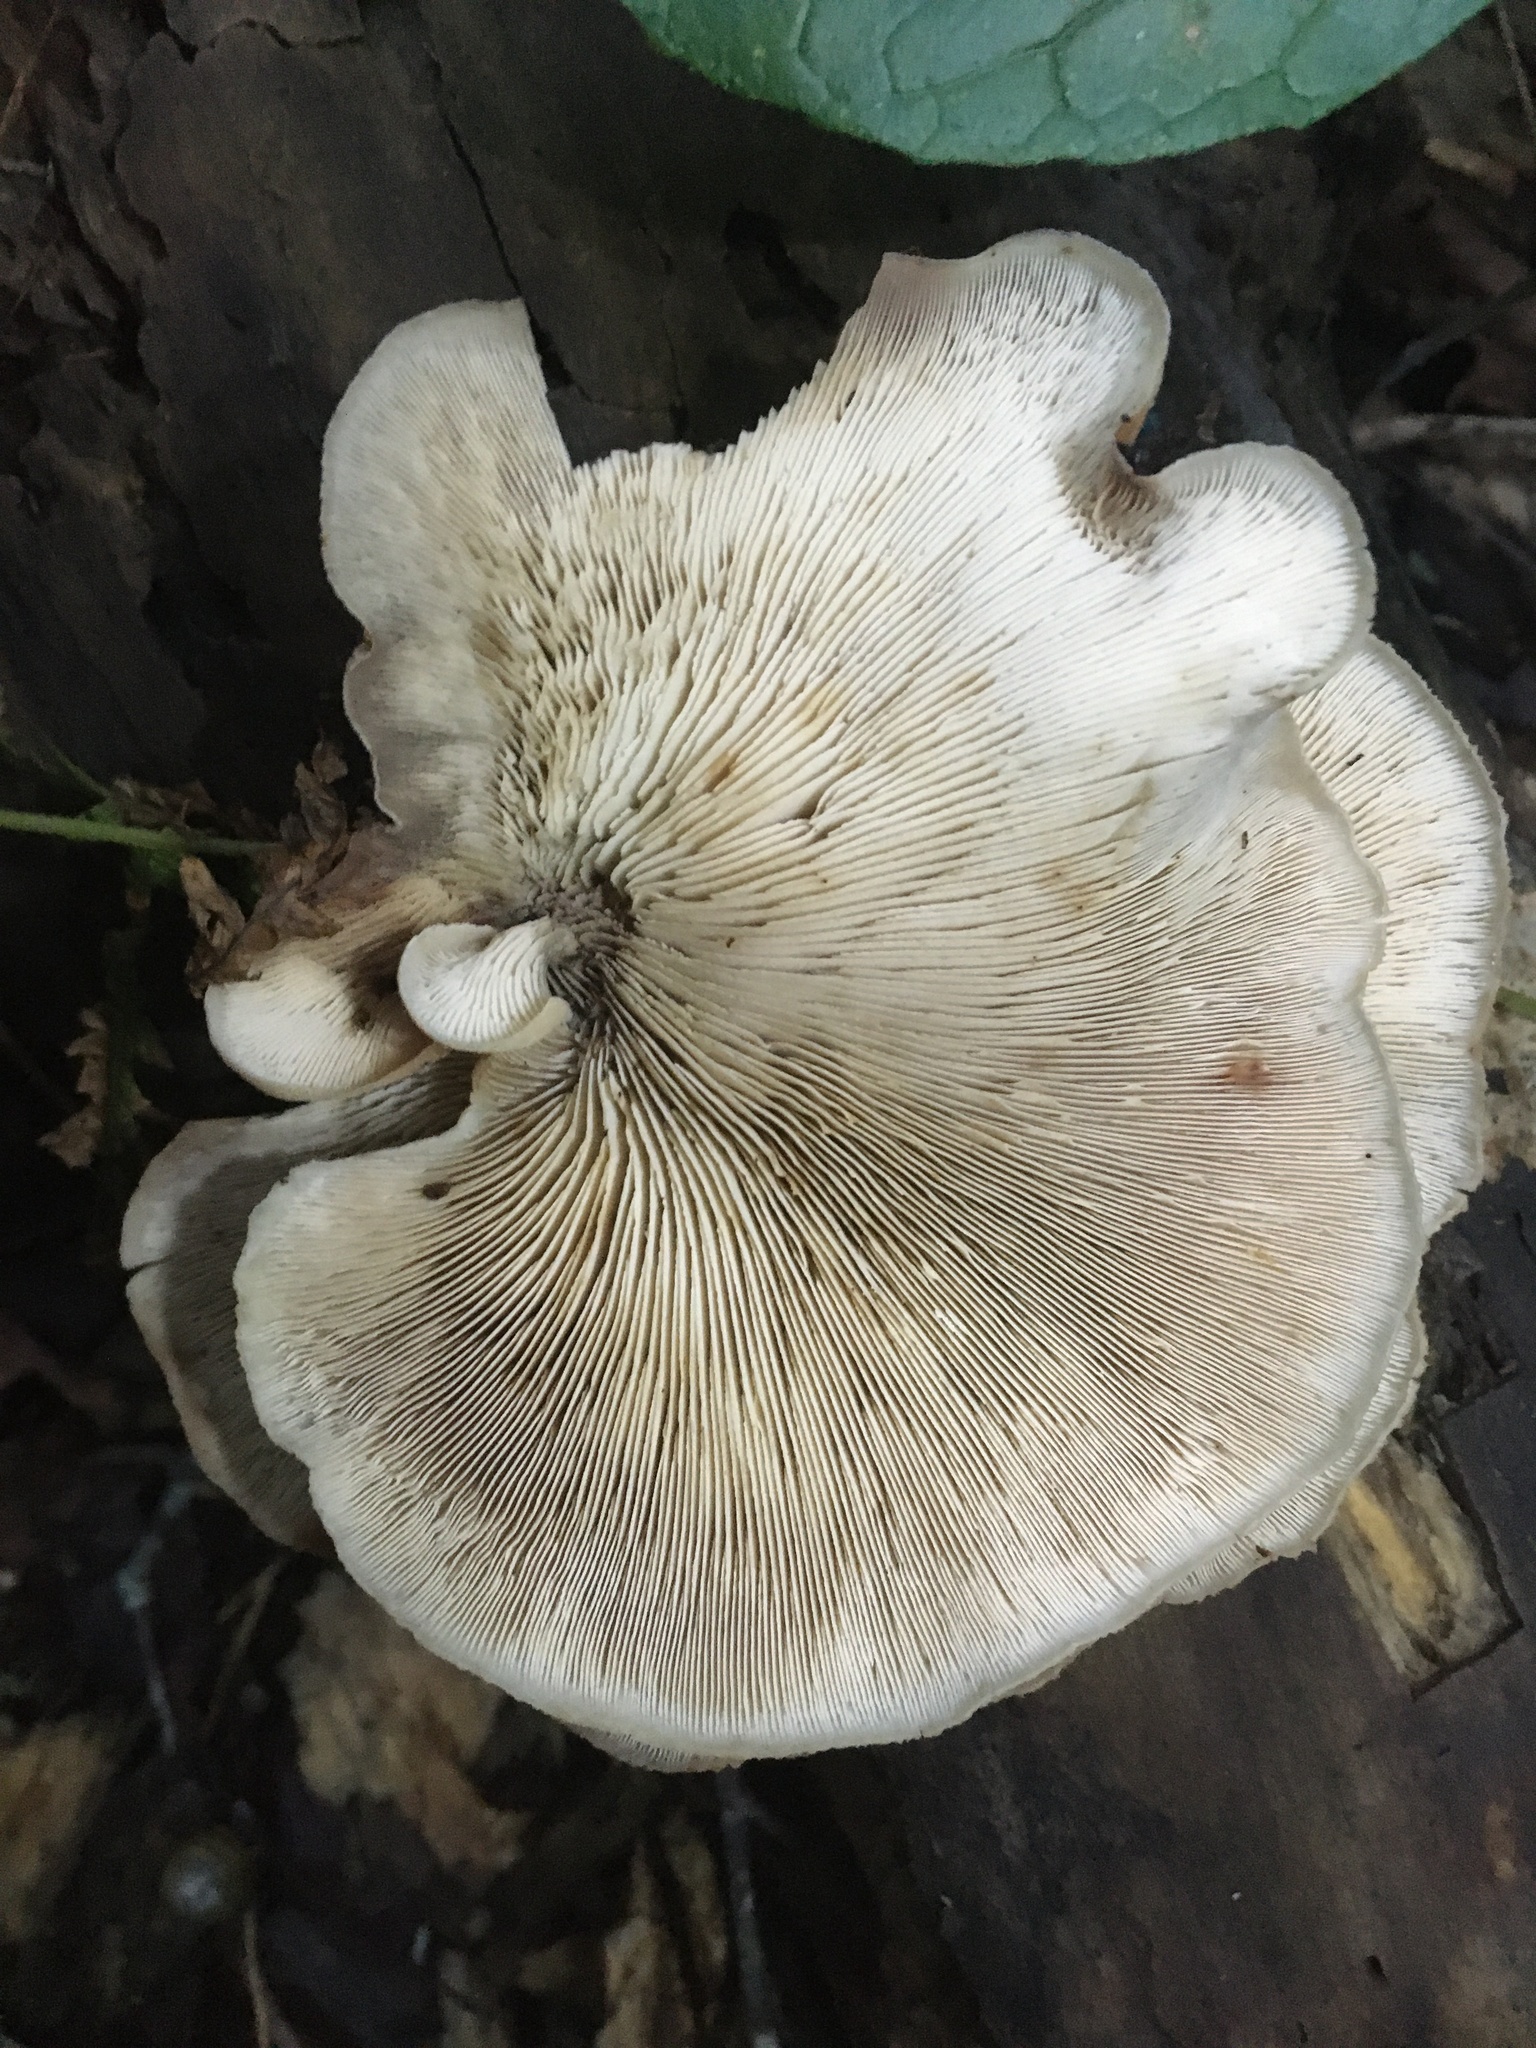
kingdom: Fungi
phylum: Basidiomycota
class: Agaricomycetes
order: Russulales
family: Auriscalpiaceae
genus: Lentinellus
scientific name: Lentinellus ursinus
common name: Bear lentinus
